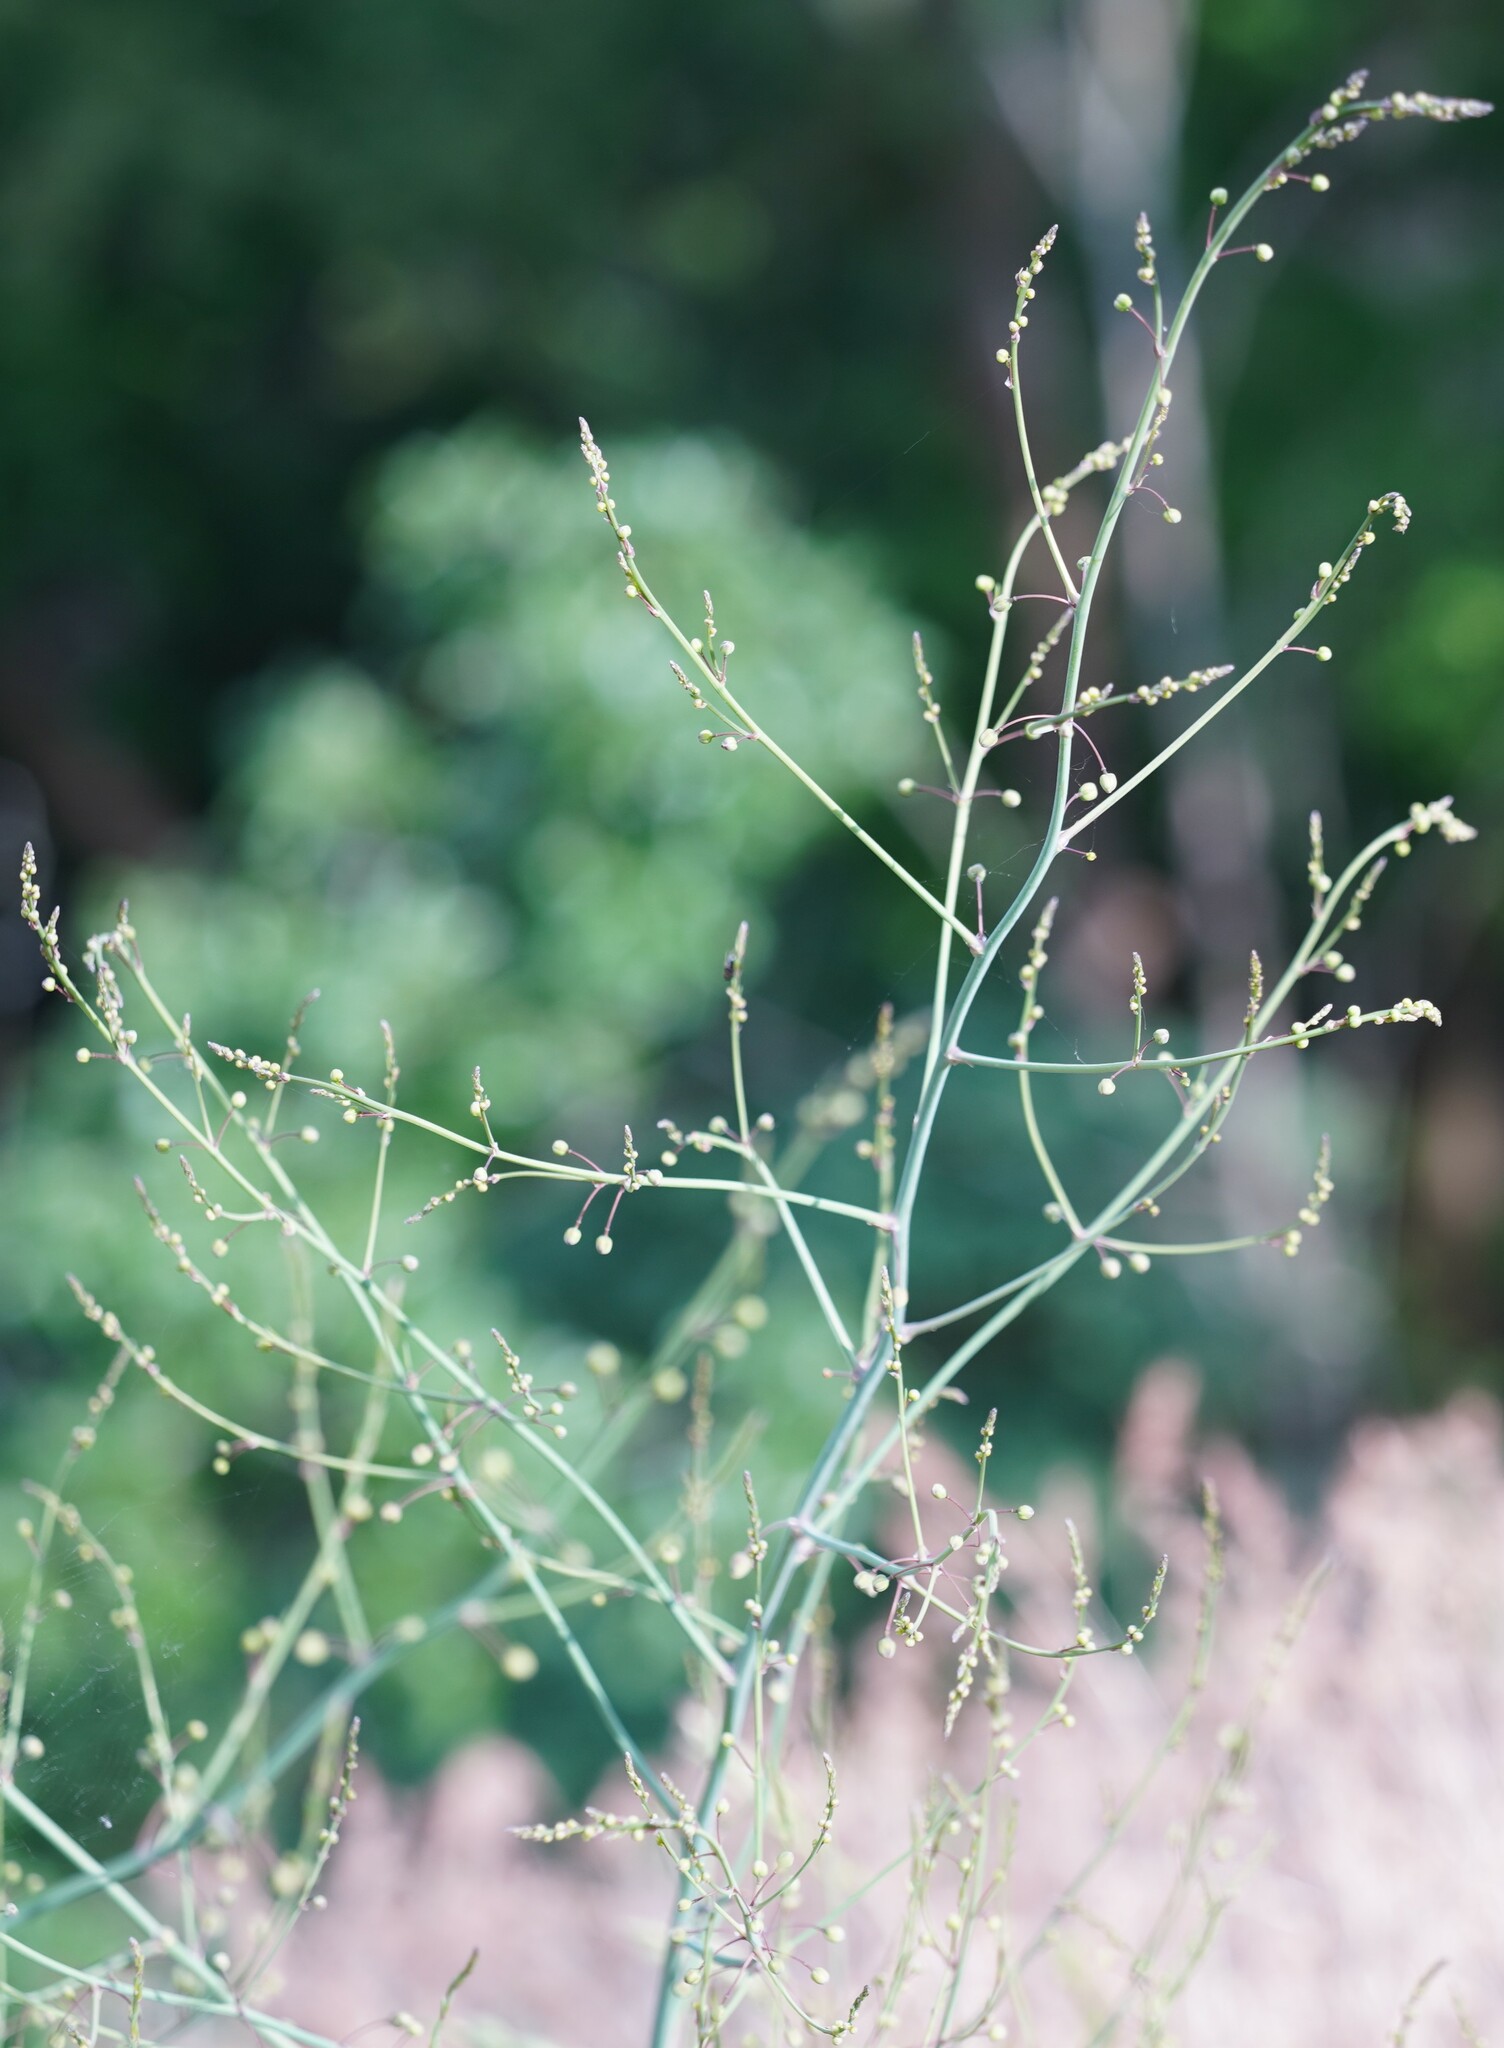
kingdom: Plantae
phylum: Tracheophyta
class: Liliopsida
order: Asparagales
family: Asparagaceae
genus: Asparagus
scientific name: Asparagus officinalis
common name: Garden asparagus
